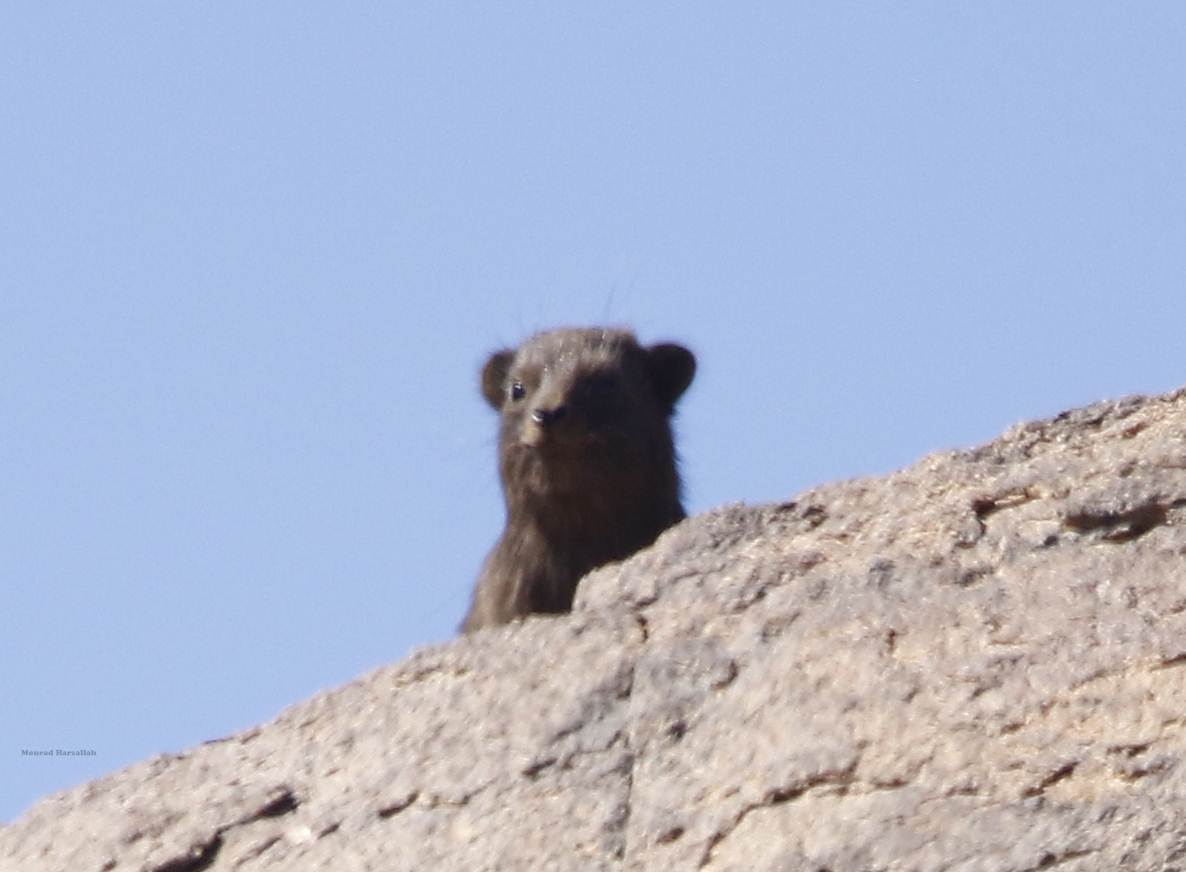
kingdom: Animalia
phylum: Chordata
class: Mammalia
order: Hyracoidea
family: Procaviidae
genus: Procavia
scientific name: Procavia capensis
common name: Rock hyrax
